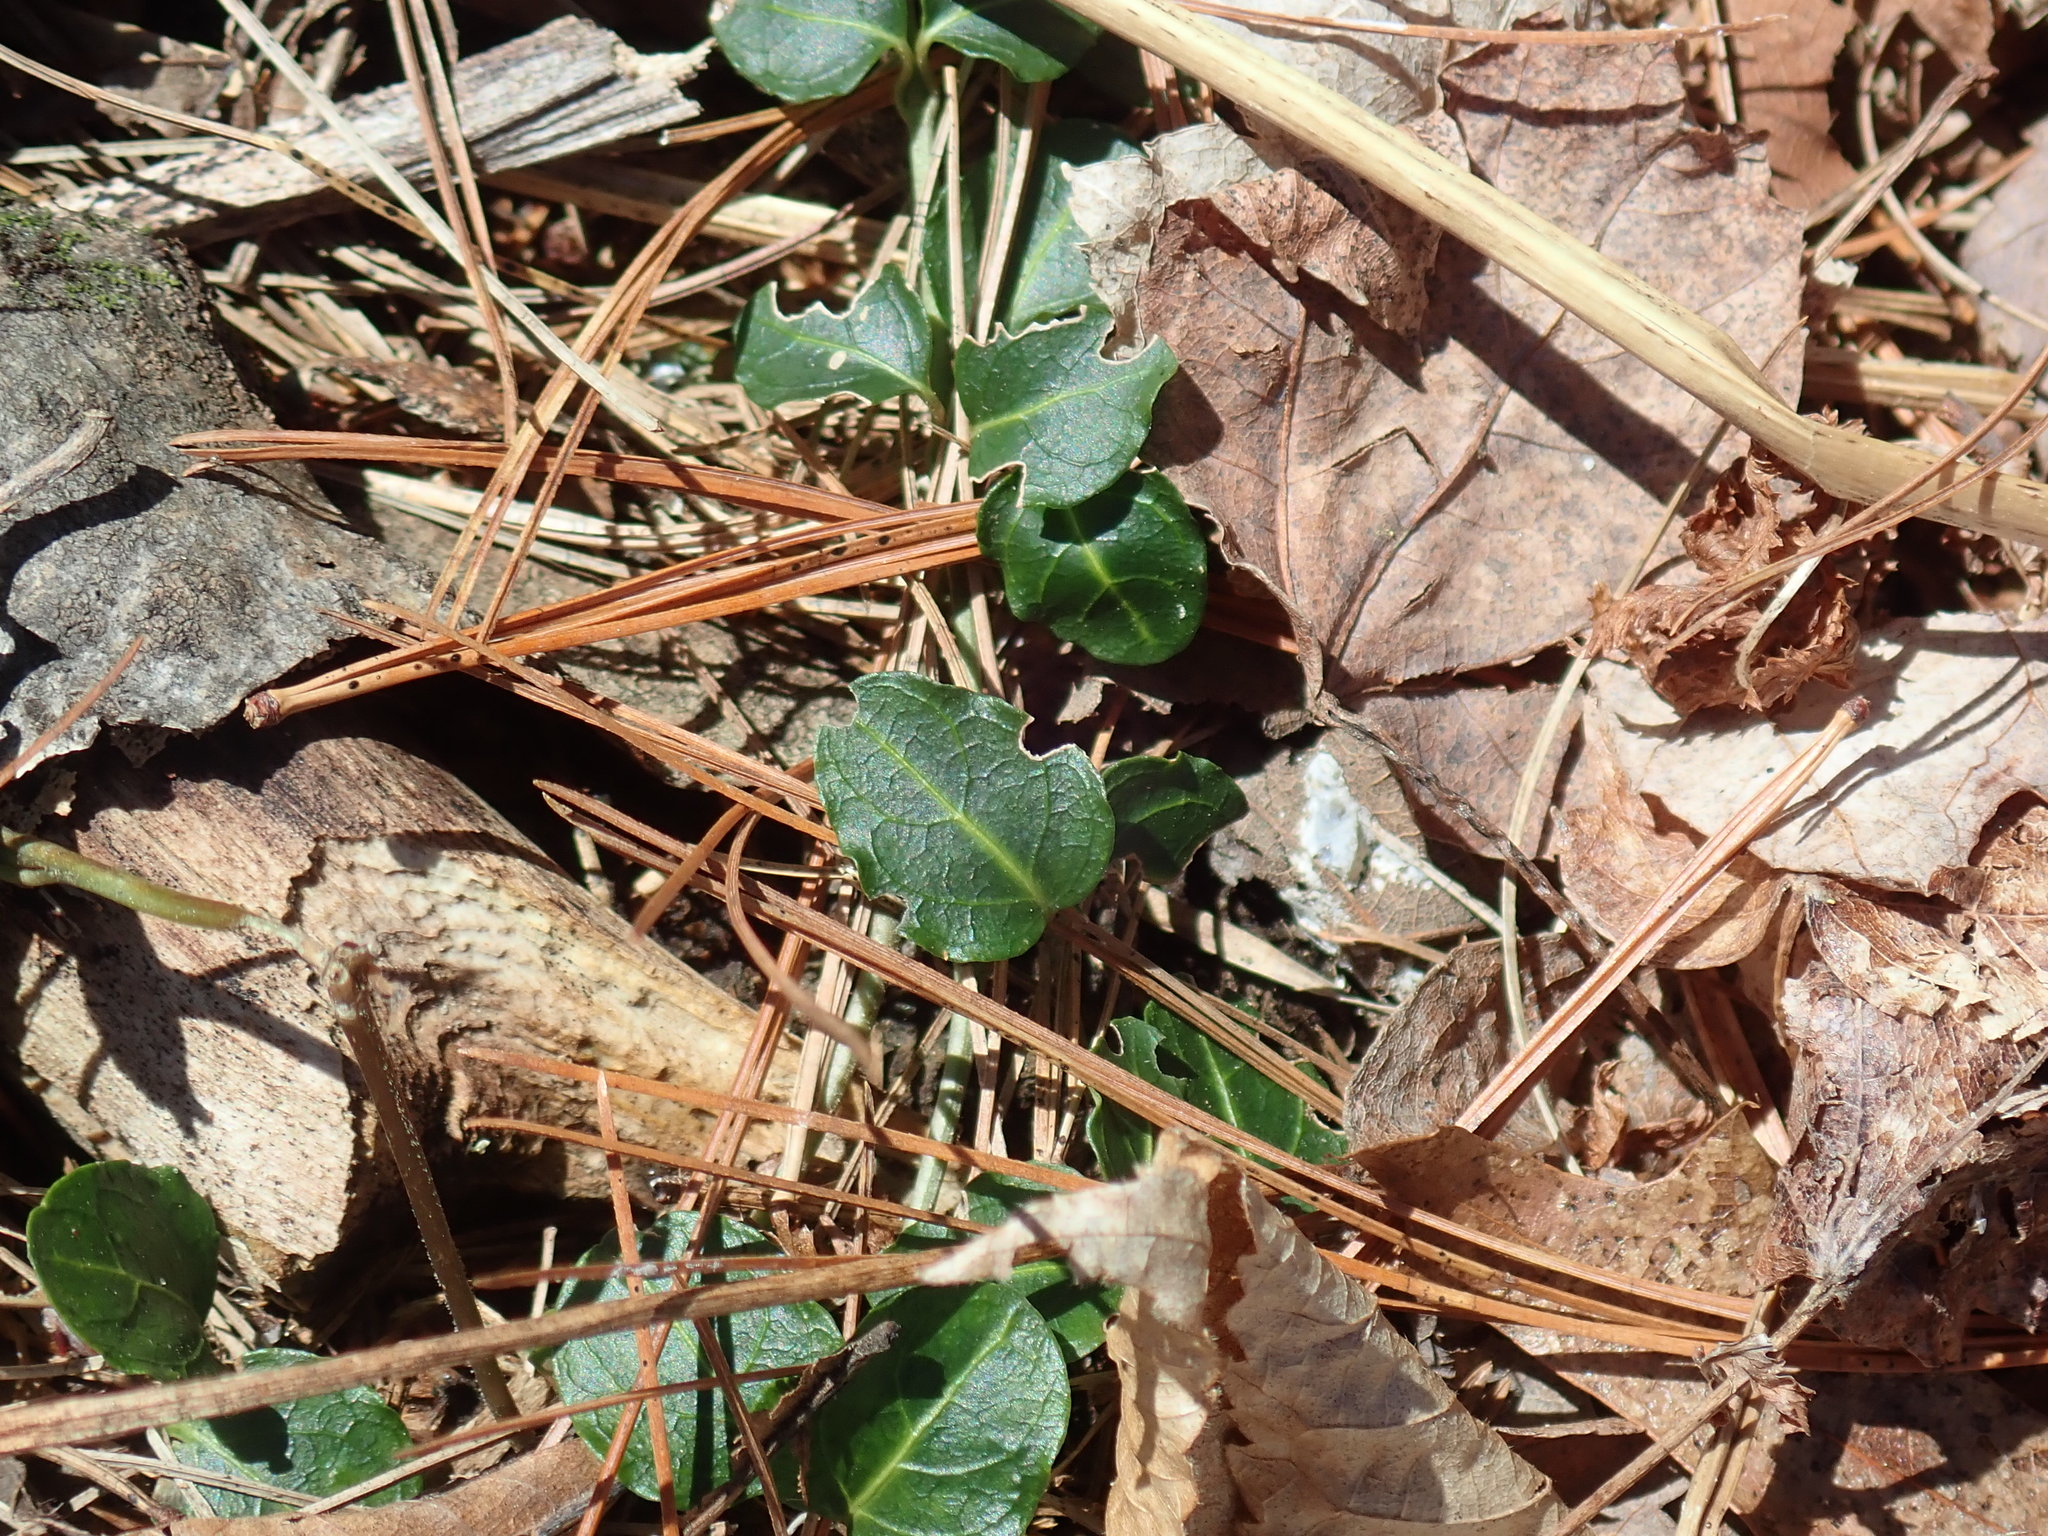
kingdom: Plantae
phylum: Tracheophyta
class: Magnoliopsida
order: Gentianales
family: Rubiaceae
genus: Mitchella
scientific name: Mitchella repens
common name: Partridge-berry
